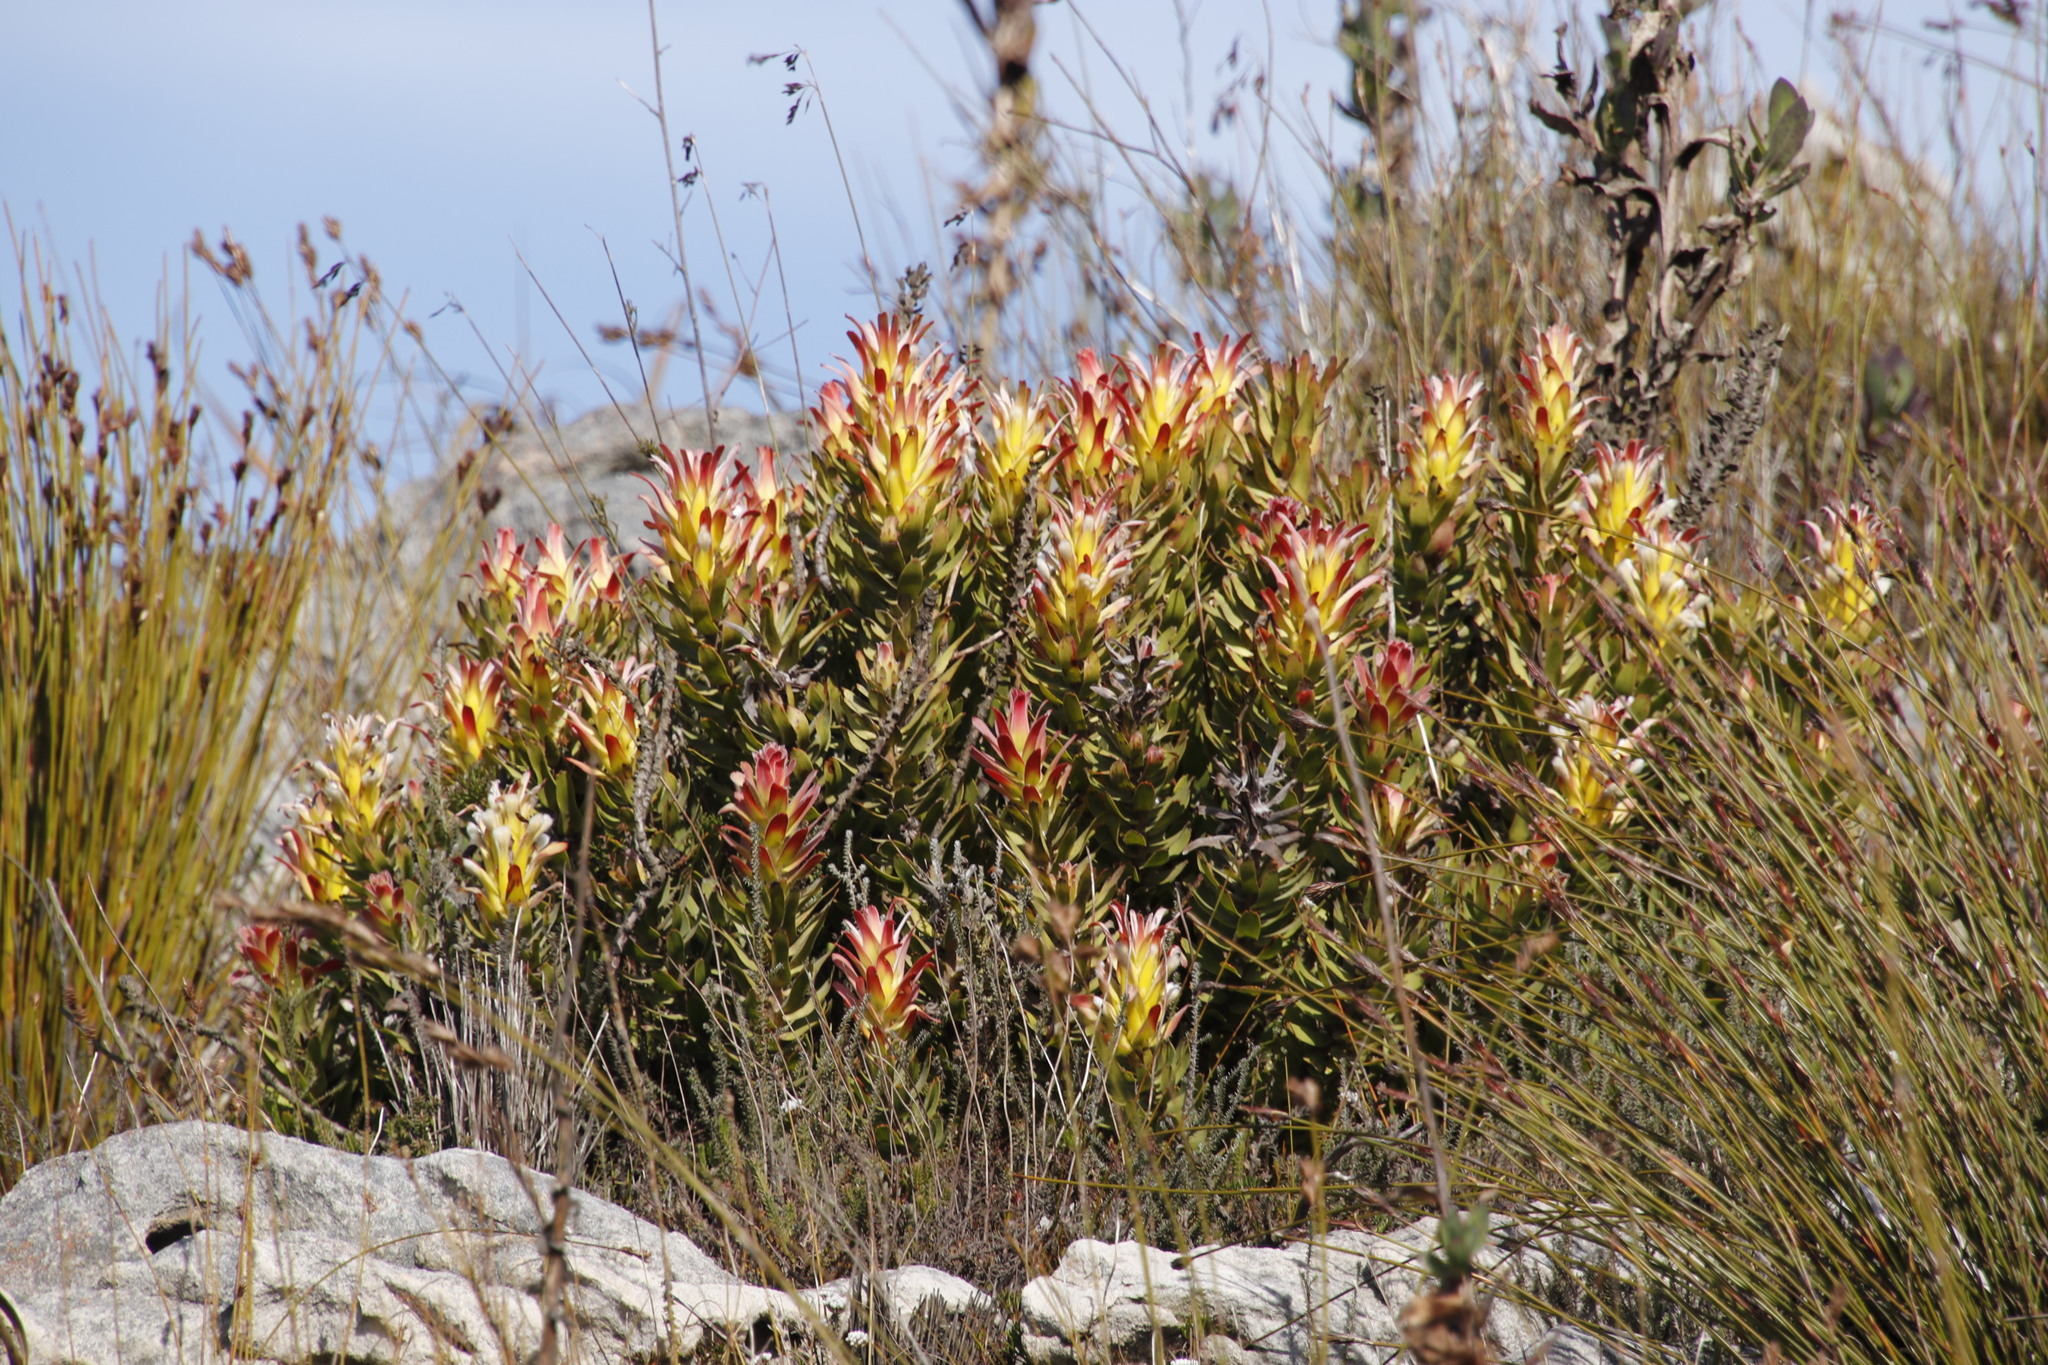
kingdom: Plantae
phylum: Tracheophyta
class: Magnoliopsida
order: Proteales
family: Proteaceae
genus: Mimetes
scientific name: Mimetes cucullatus
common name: Common pagoda
